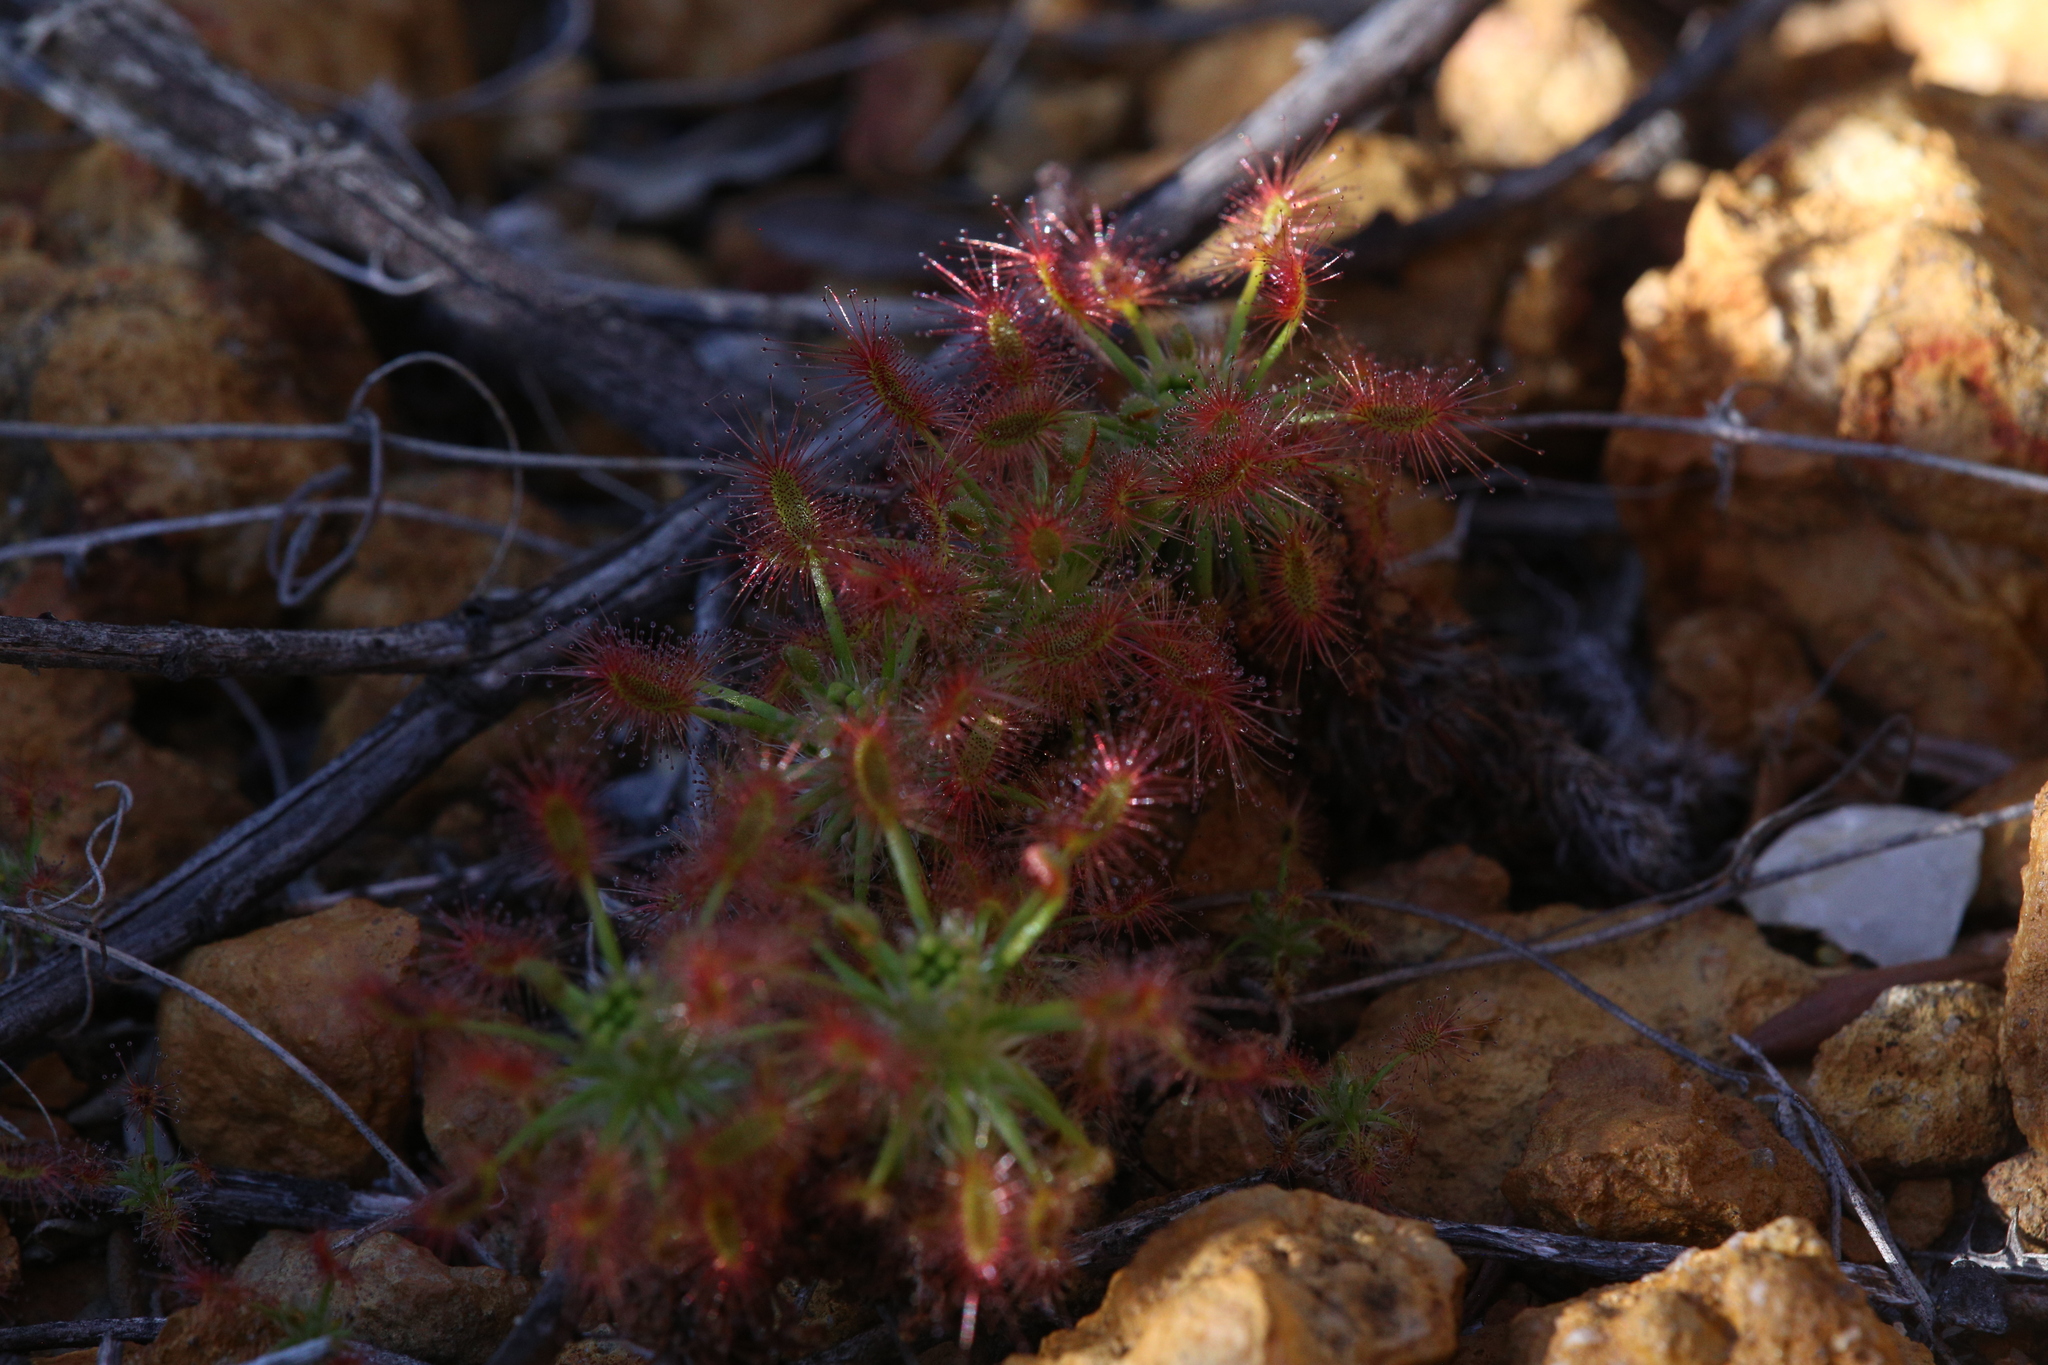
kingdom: Plantae
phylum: Tracheophyta
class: Magnoliopsida
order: Caryophyllales
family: Droseraceae
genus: Drosera
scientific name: Drosera barbigera
